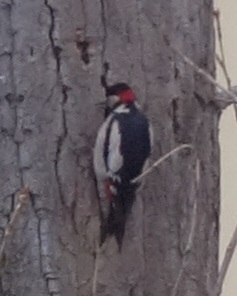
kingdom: Animalia
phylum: Chordata
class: Aves
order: Piciformes
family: Picidae
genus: Dendrocopos
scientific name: Dendrocopos major
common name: Great spotted woodpecker
